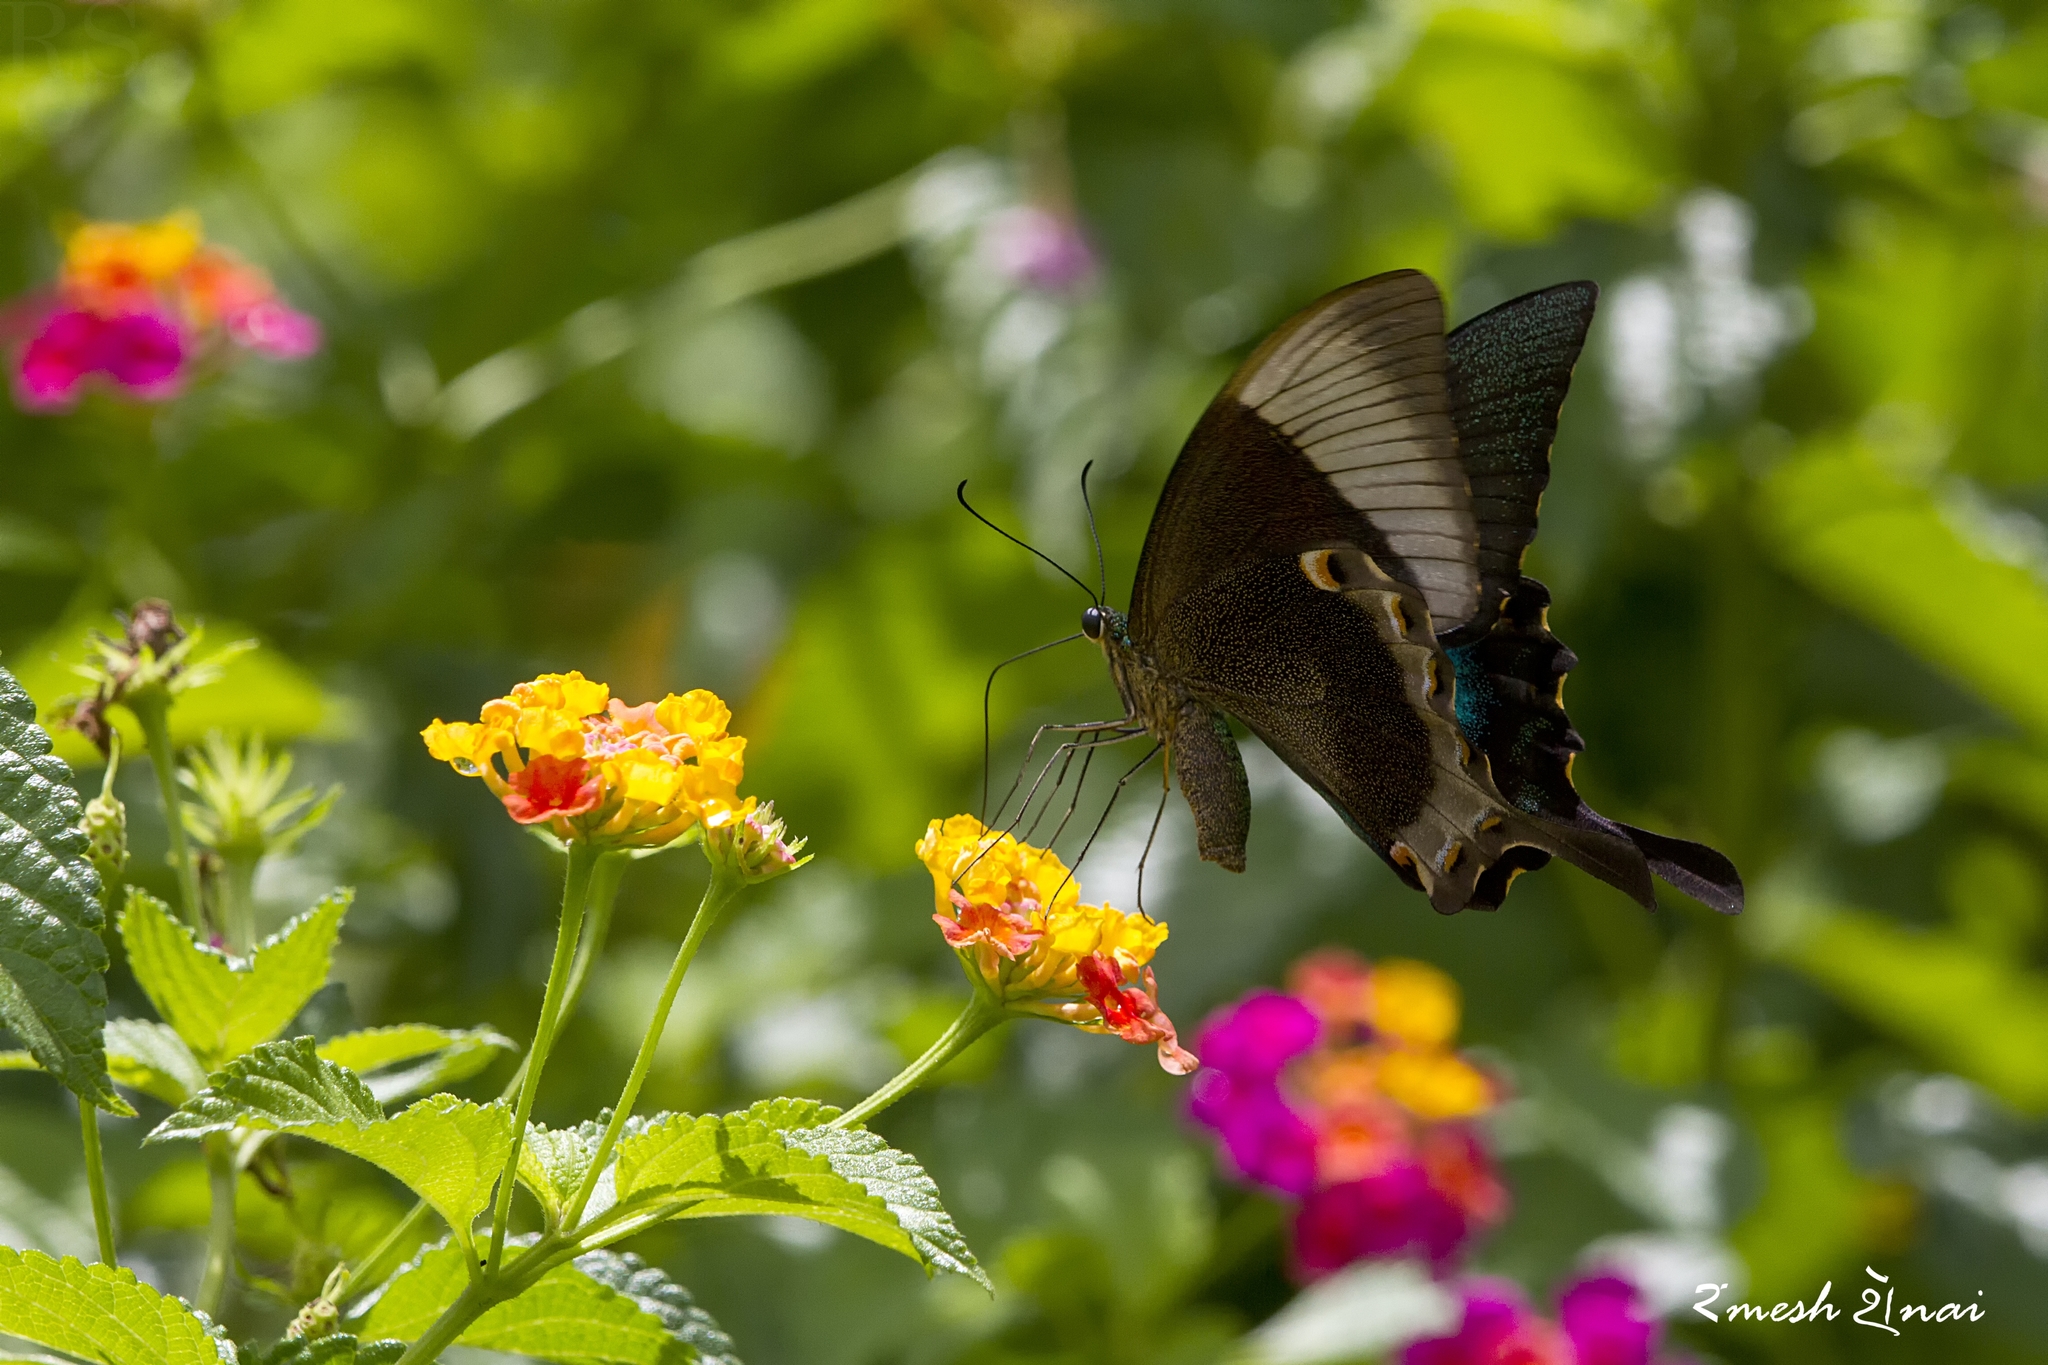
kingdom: Animalia
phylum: Arthropoda
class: Insecta
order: Lepidoptera
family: Papilionidae
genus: Papilio
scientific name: Papilio buddha
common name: Malabar banded peacock
